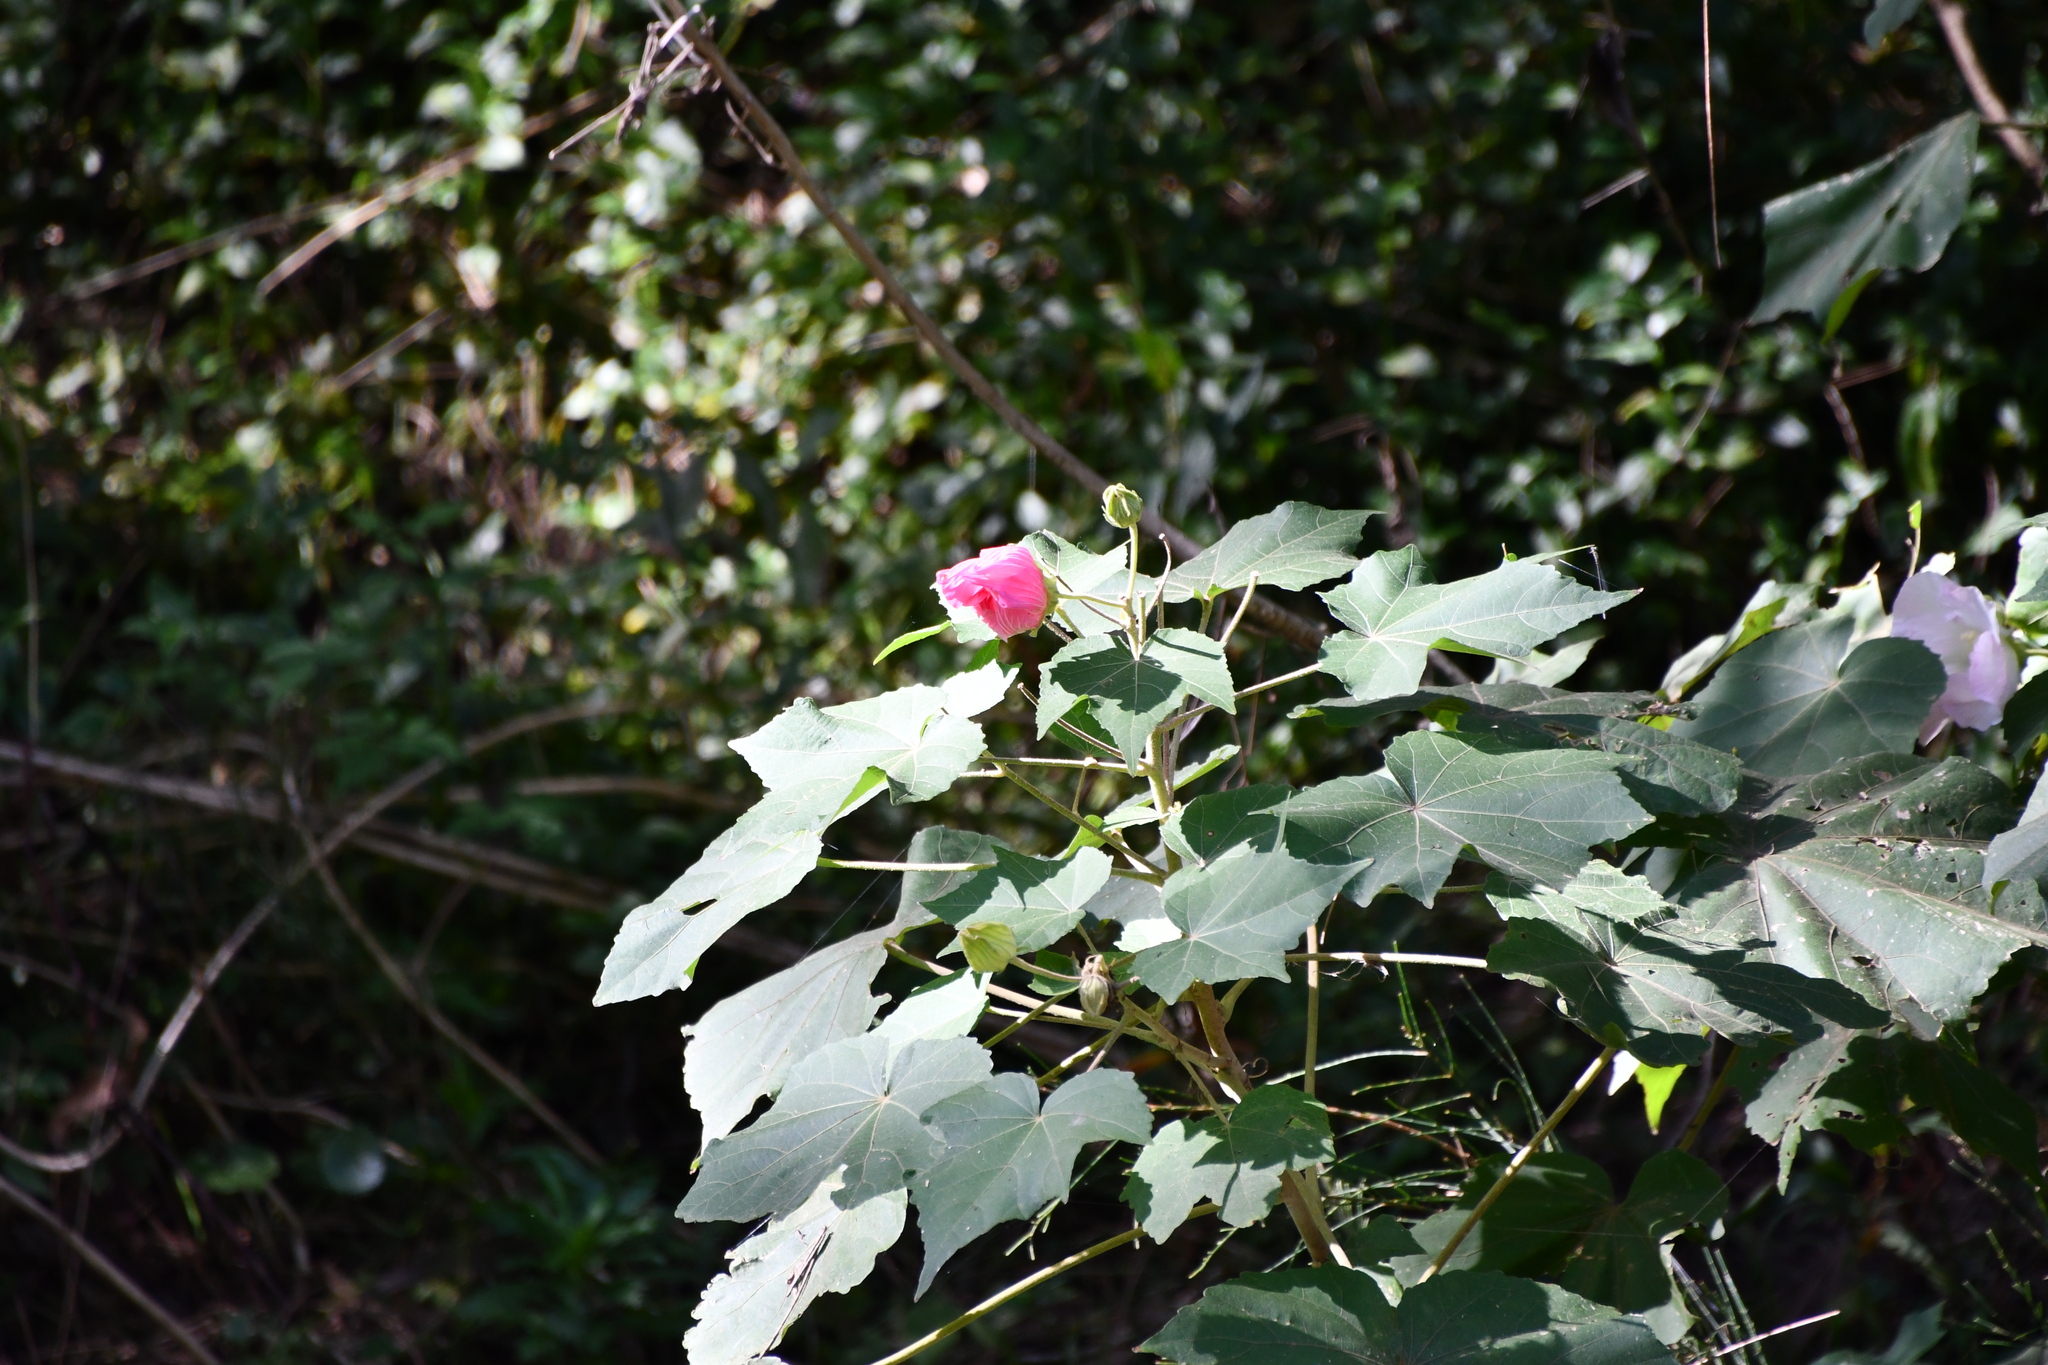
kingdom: Plantae
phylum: Tracheophyta
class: Magnoliopsida
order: Malvales
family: Malvaceae
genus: Hibiscus
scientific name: Hibiscus mutabilis
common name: Dixie rosemallow
